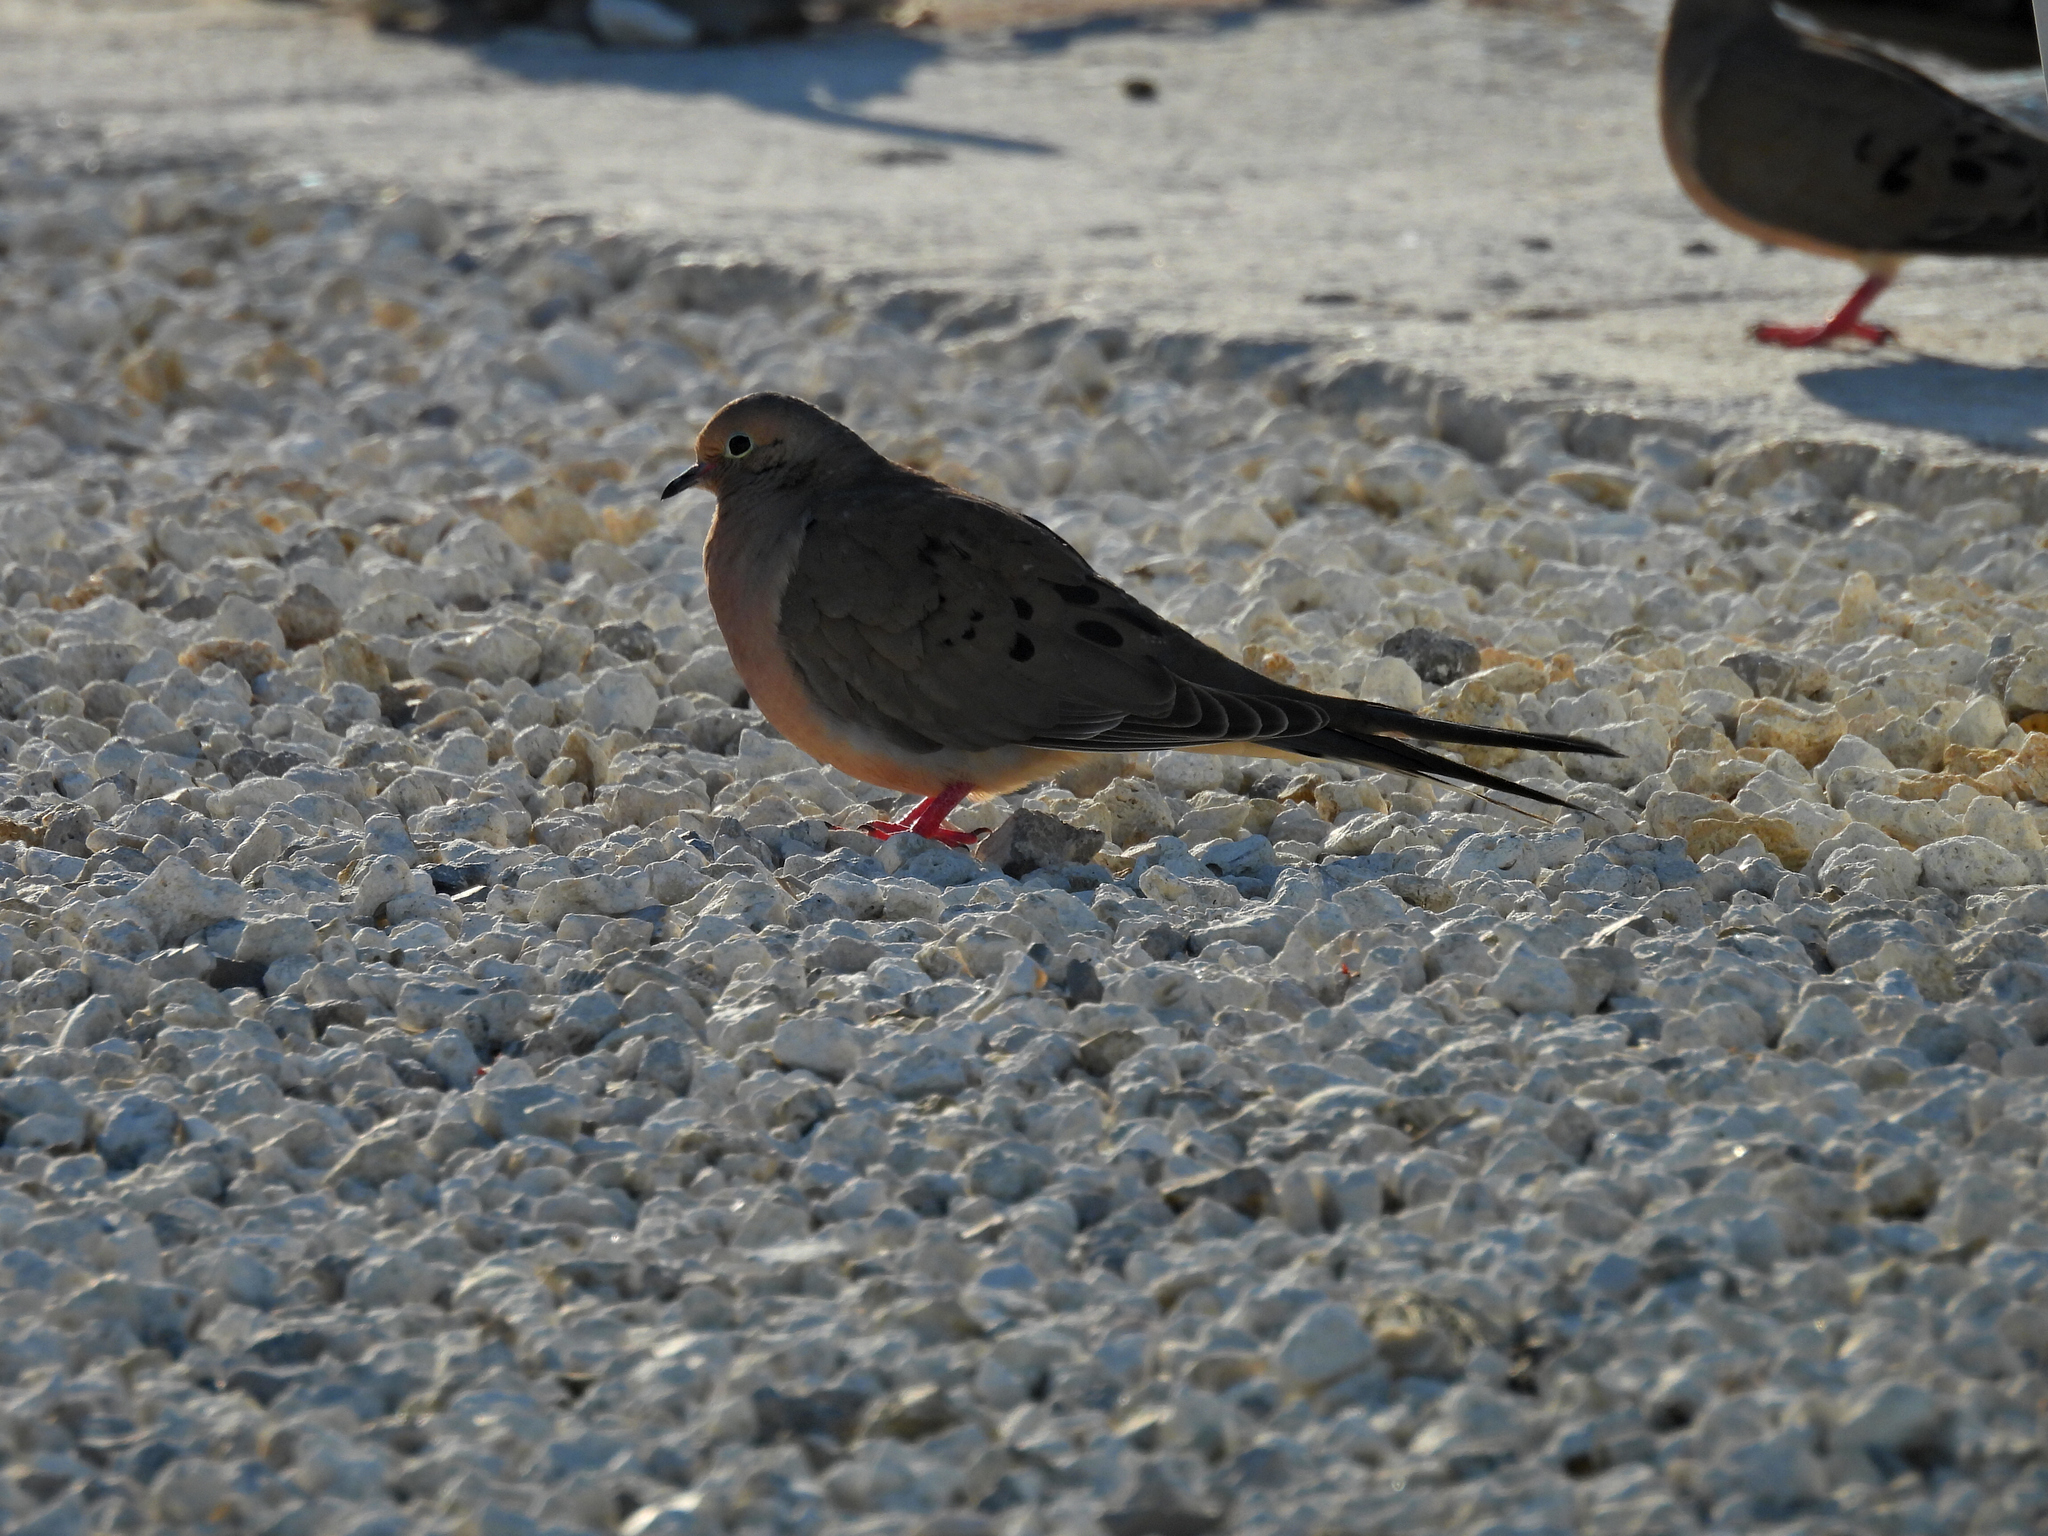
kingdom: Animalia
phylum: Chordata
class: Aves
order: Columbiformes
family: Columbidae
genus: Zenaida
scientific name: Zenaida macroura
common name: Mourning dove
